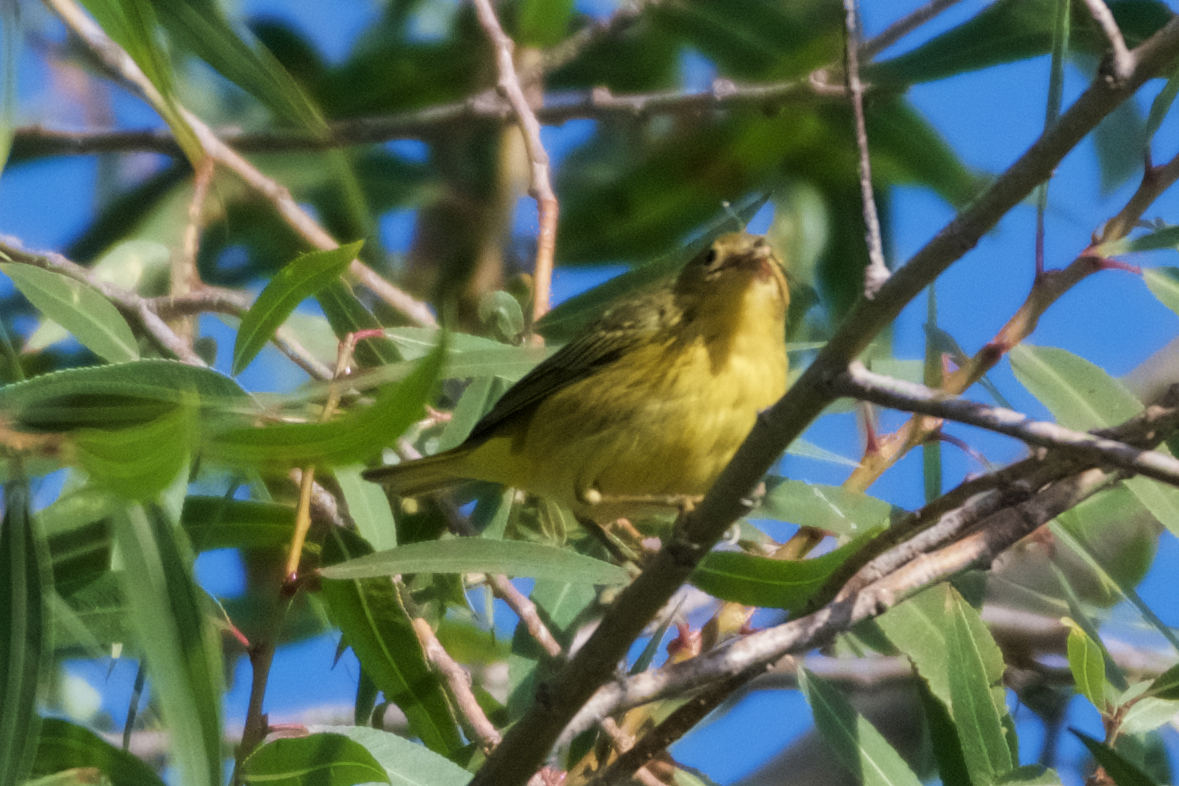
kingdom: Animalia
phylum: Chordata
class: Aves
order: Passeriformes
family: Parulidae
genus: Setophaga
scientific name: Setophaga petechia
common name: Yellow warbler
